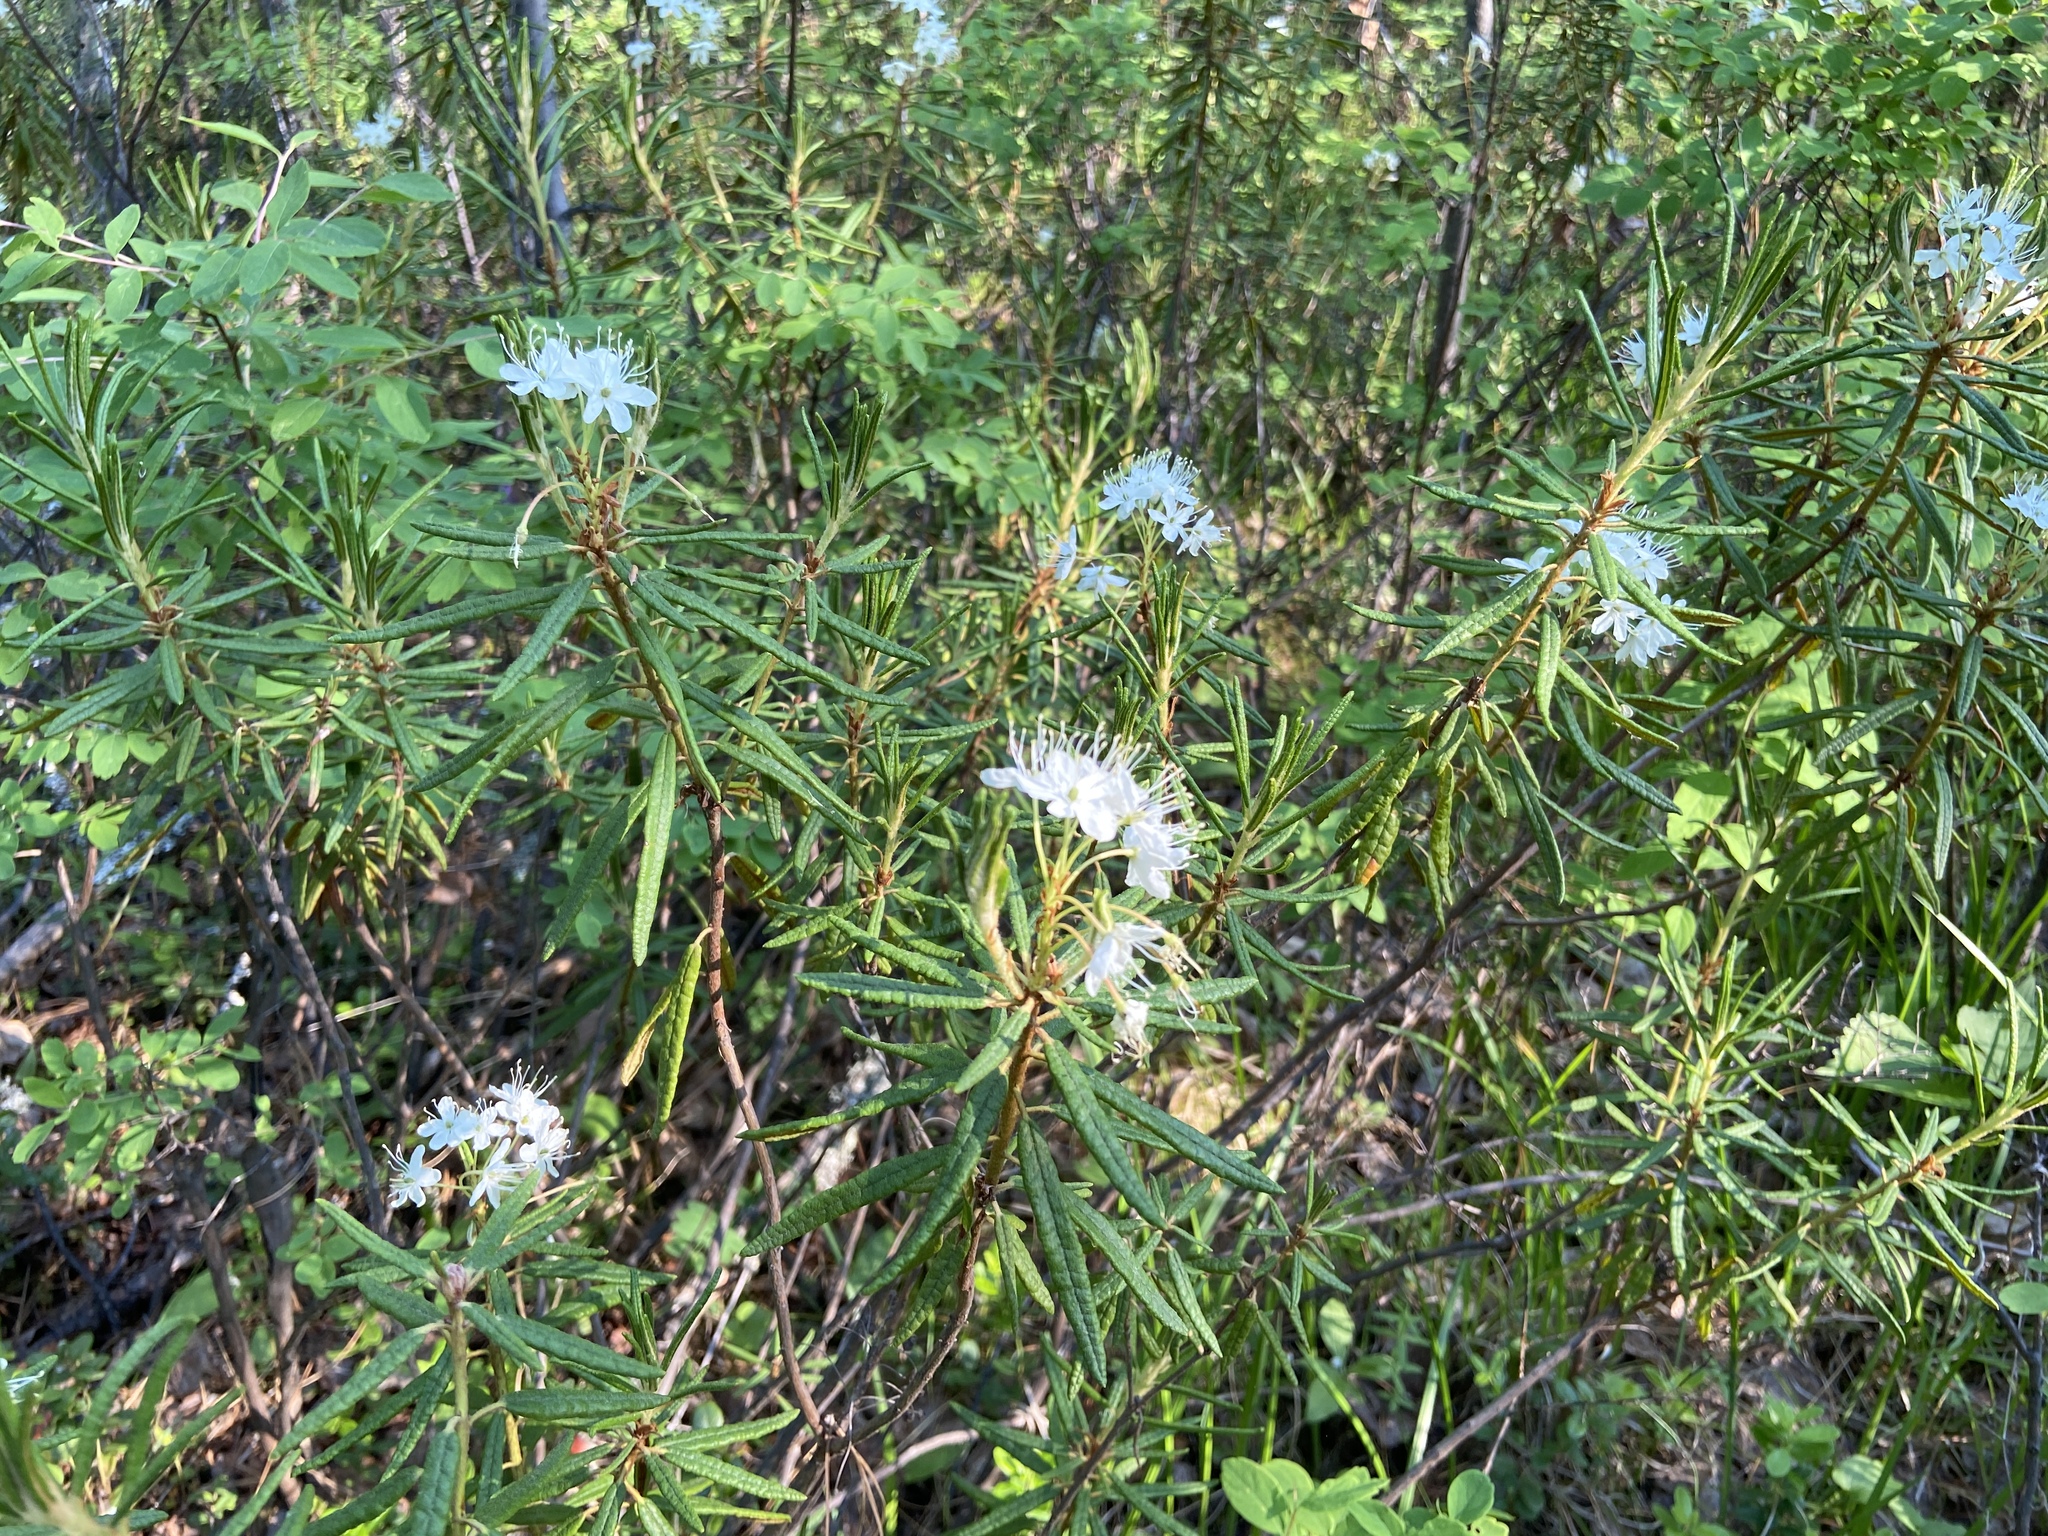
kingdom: Plantae
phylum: Tracheophyta
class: Magnoliopsida
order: Ericales
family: Ericaceae
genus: Rhododendron
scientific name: Rhododendron tomentosum
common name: Marsh labrador tea
